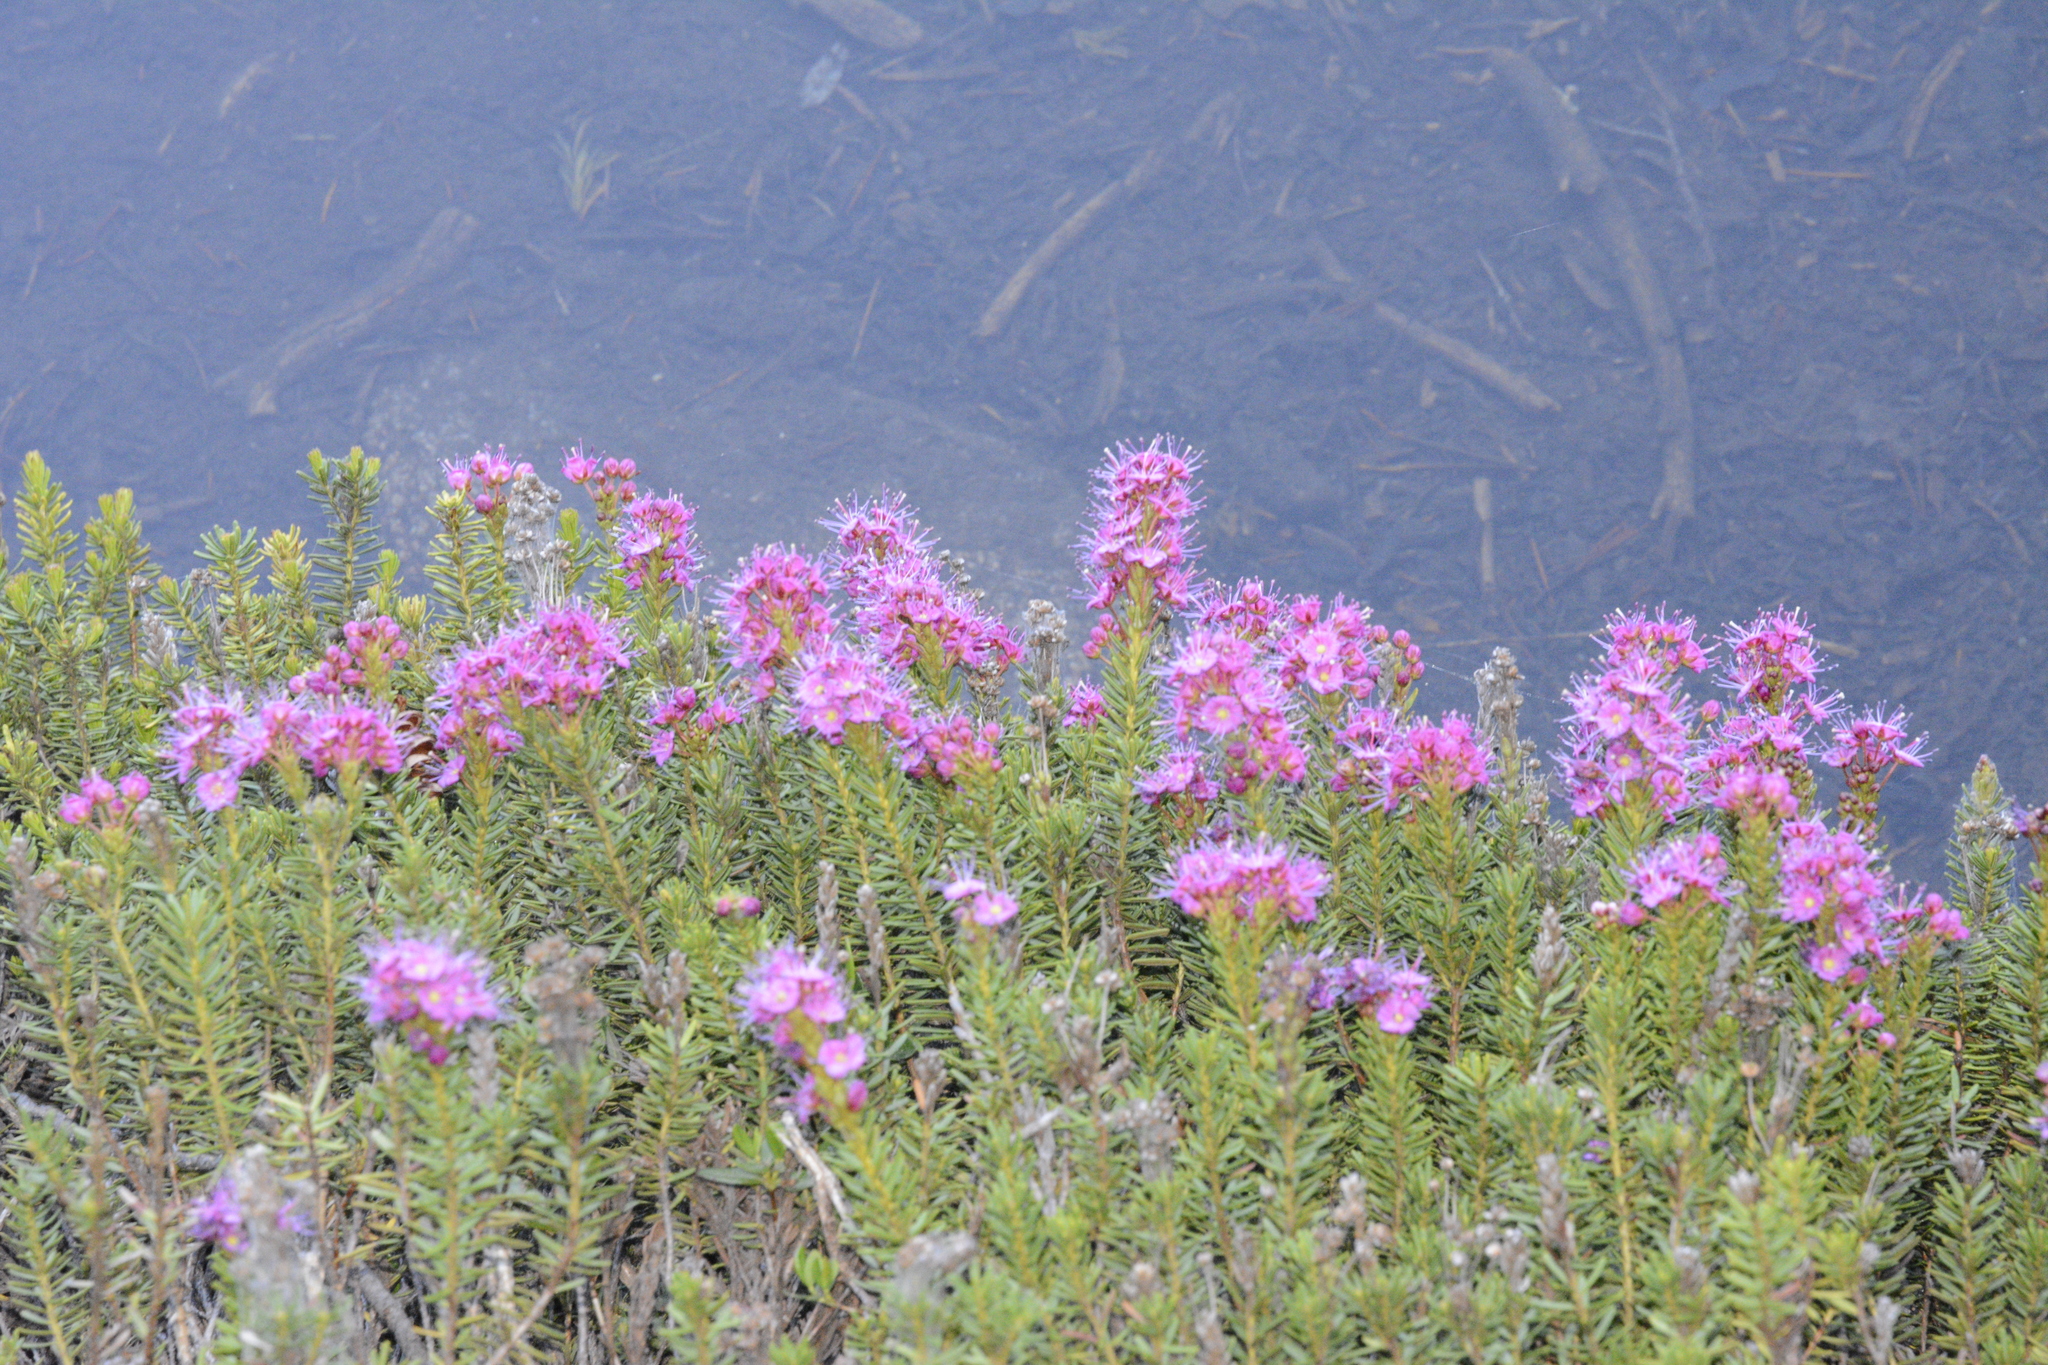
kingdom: Plantae
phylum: Tracheophyta
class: Magnoliopsida
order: Ericales
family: Ericaceae
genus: Phyllodoce
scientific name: Phyllodoce breweri
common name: Brewer's mountain-heather
